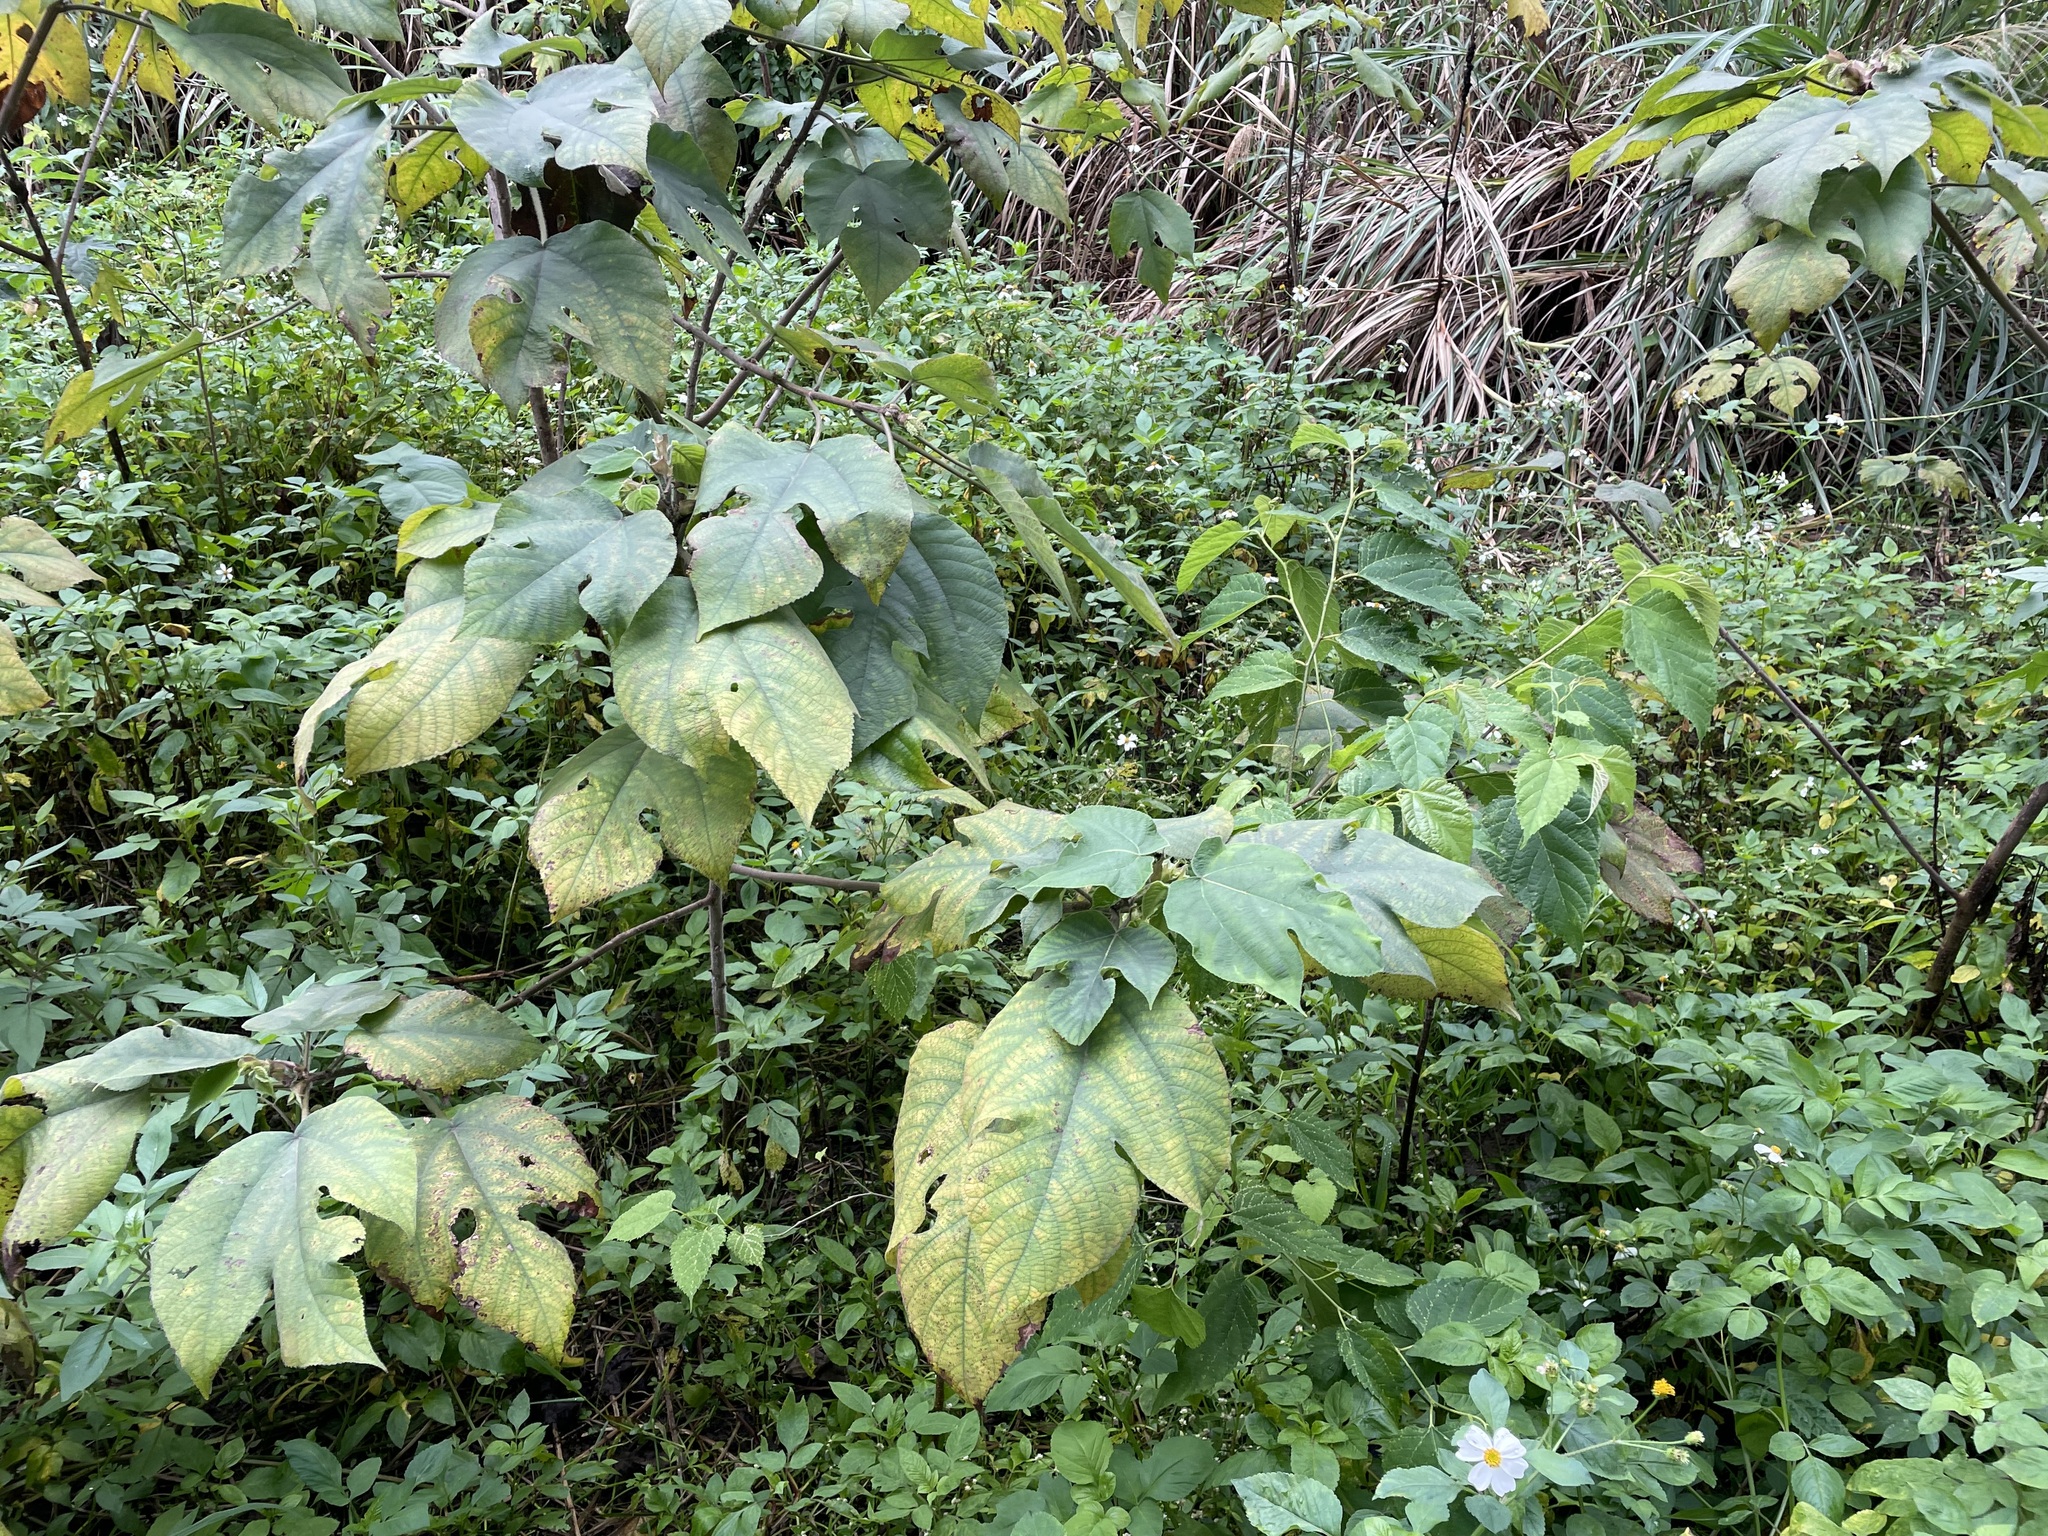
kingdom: Plantae
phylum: Tracheophyta
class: Magnoliopsida
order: Rosales
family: Moraceae
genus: Broussonetia
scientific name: Broussonetia papyrifera
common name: Paper mulberry
